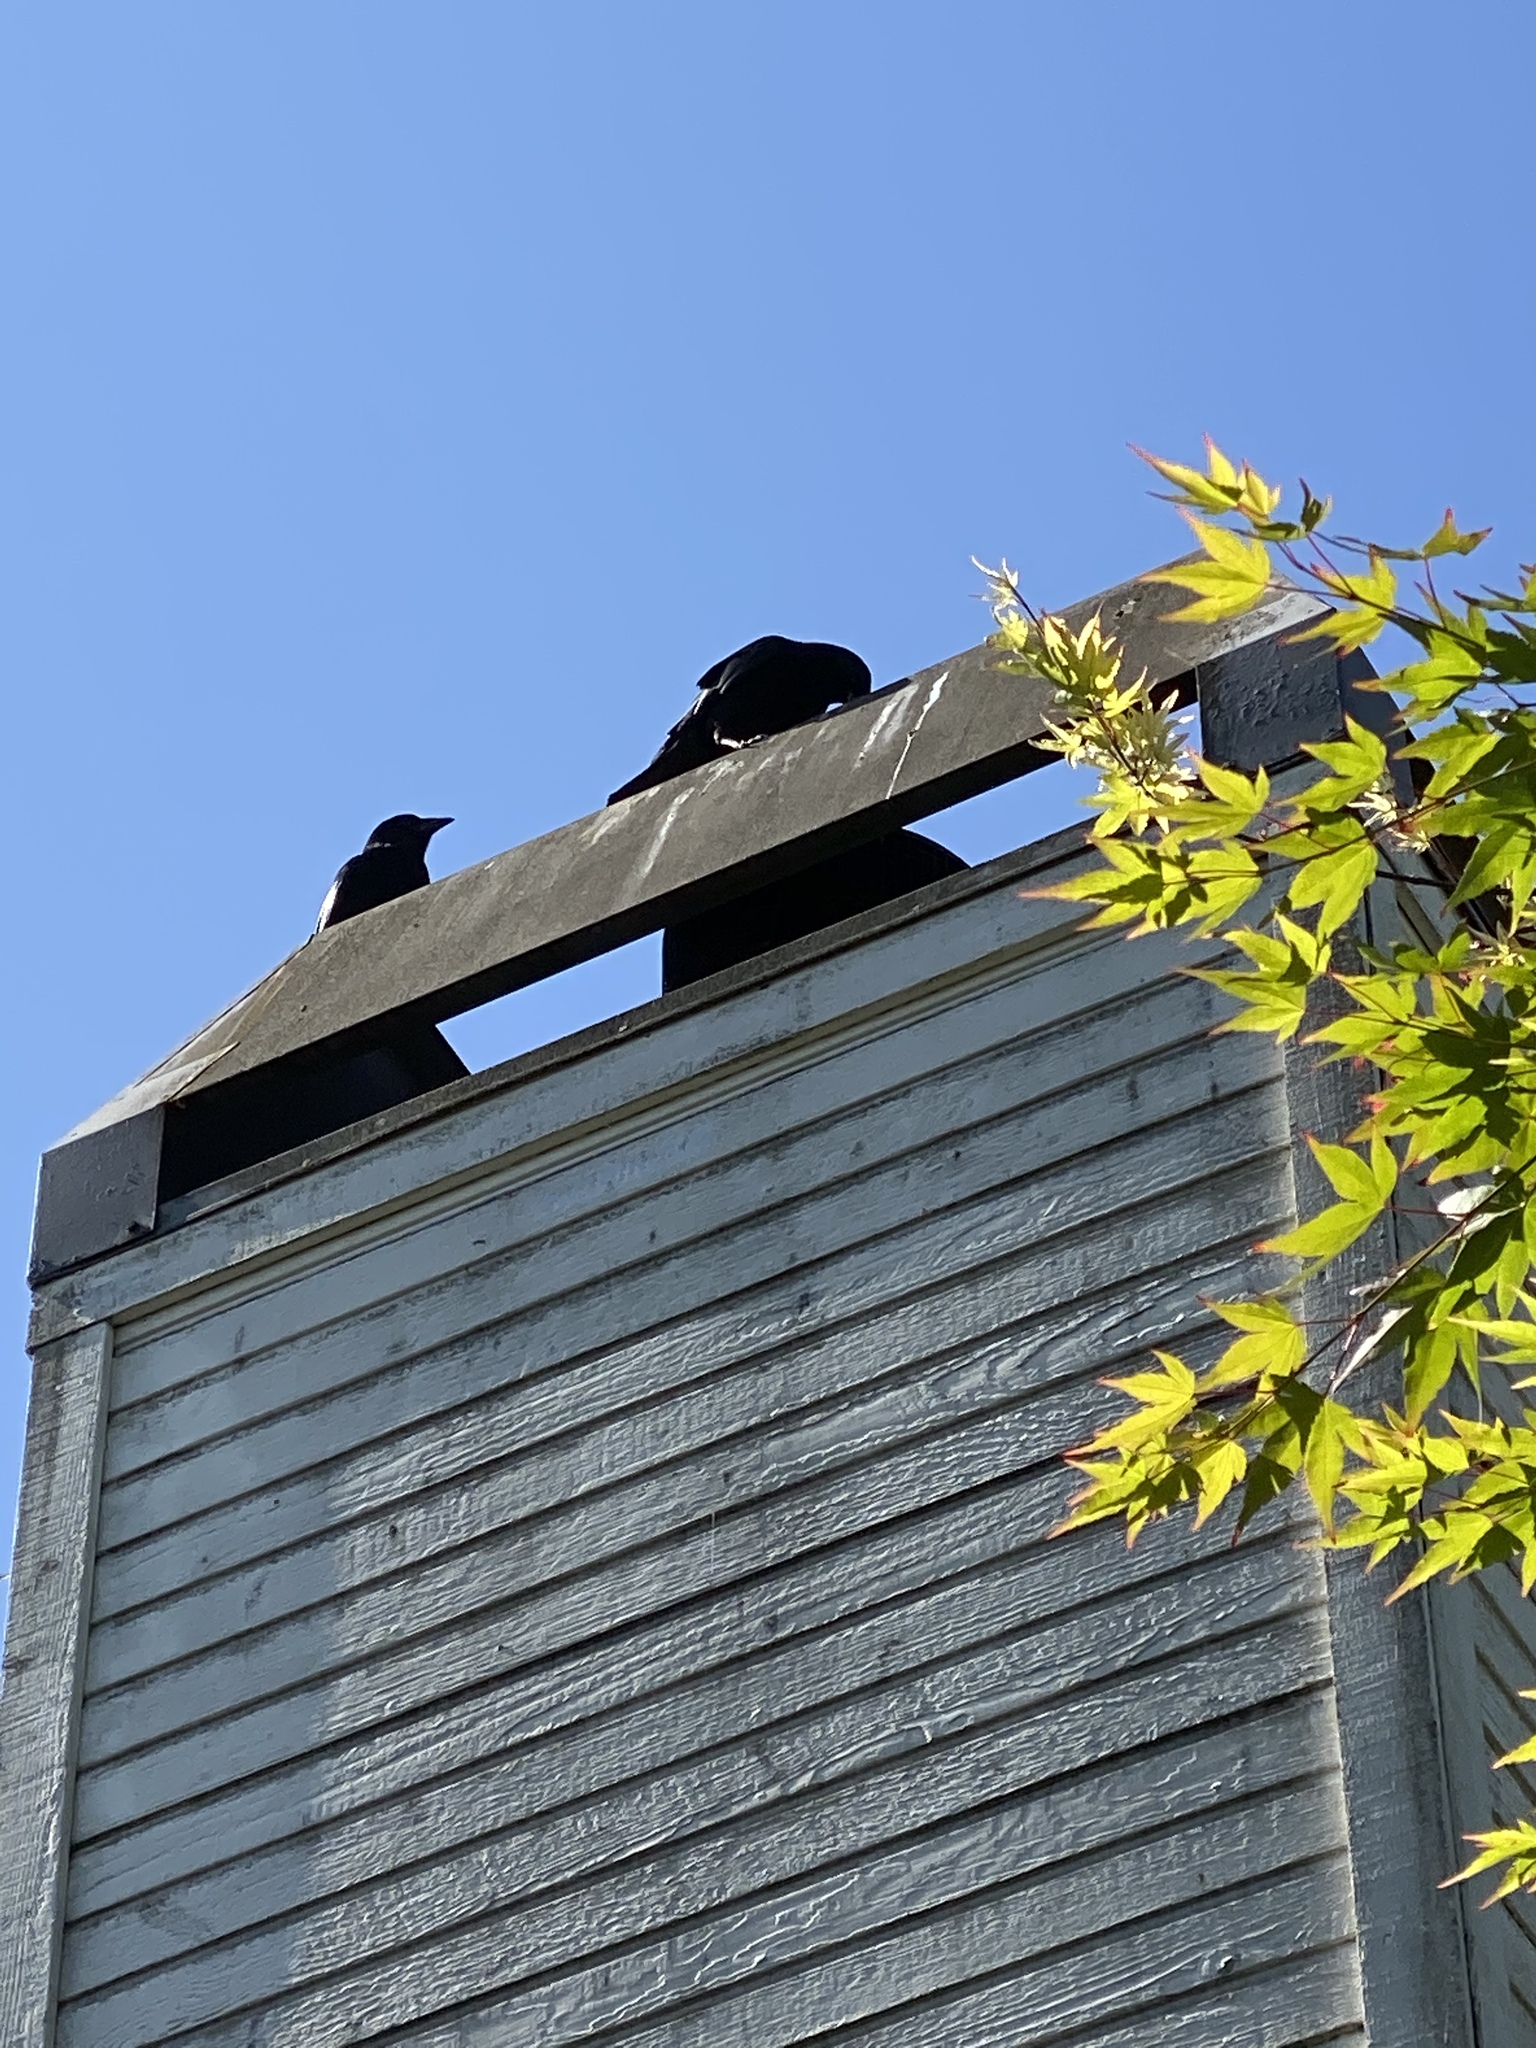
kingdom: Animalia
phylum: Chordata
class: Aves
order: Passeriformes
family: Corvidae
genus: Corvus
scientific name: Corvus brachyrhynchos
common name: American crow
